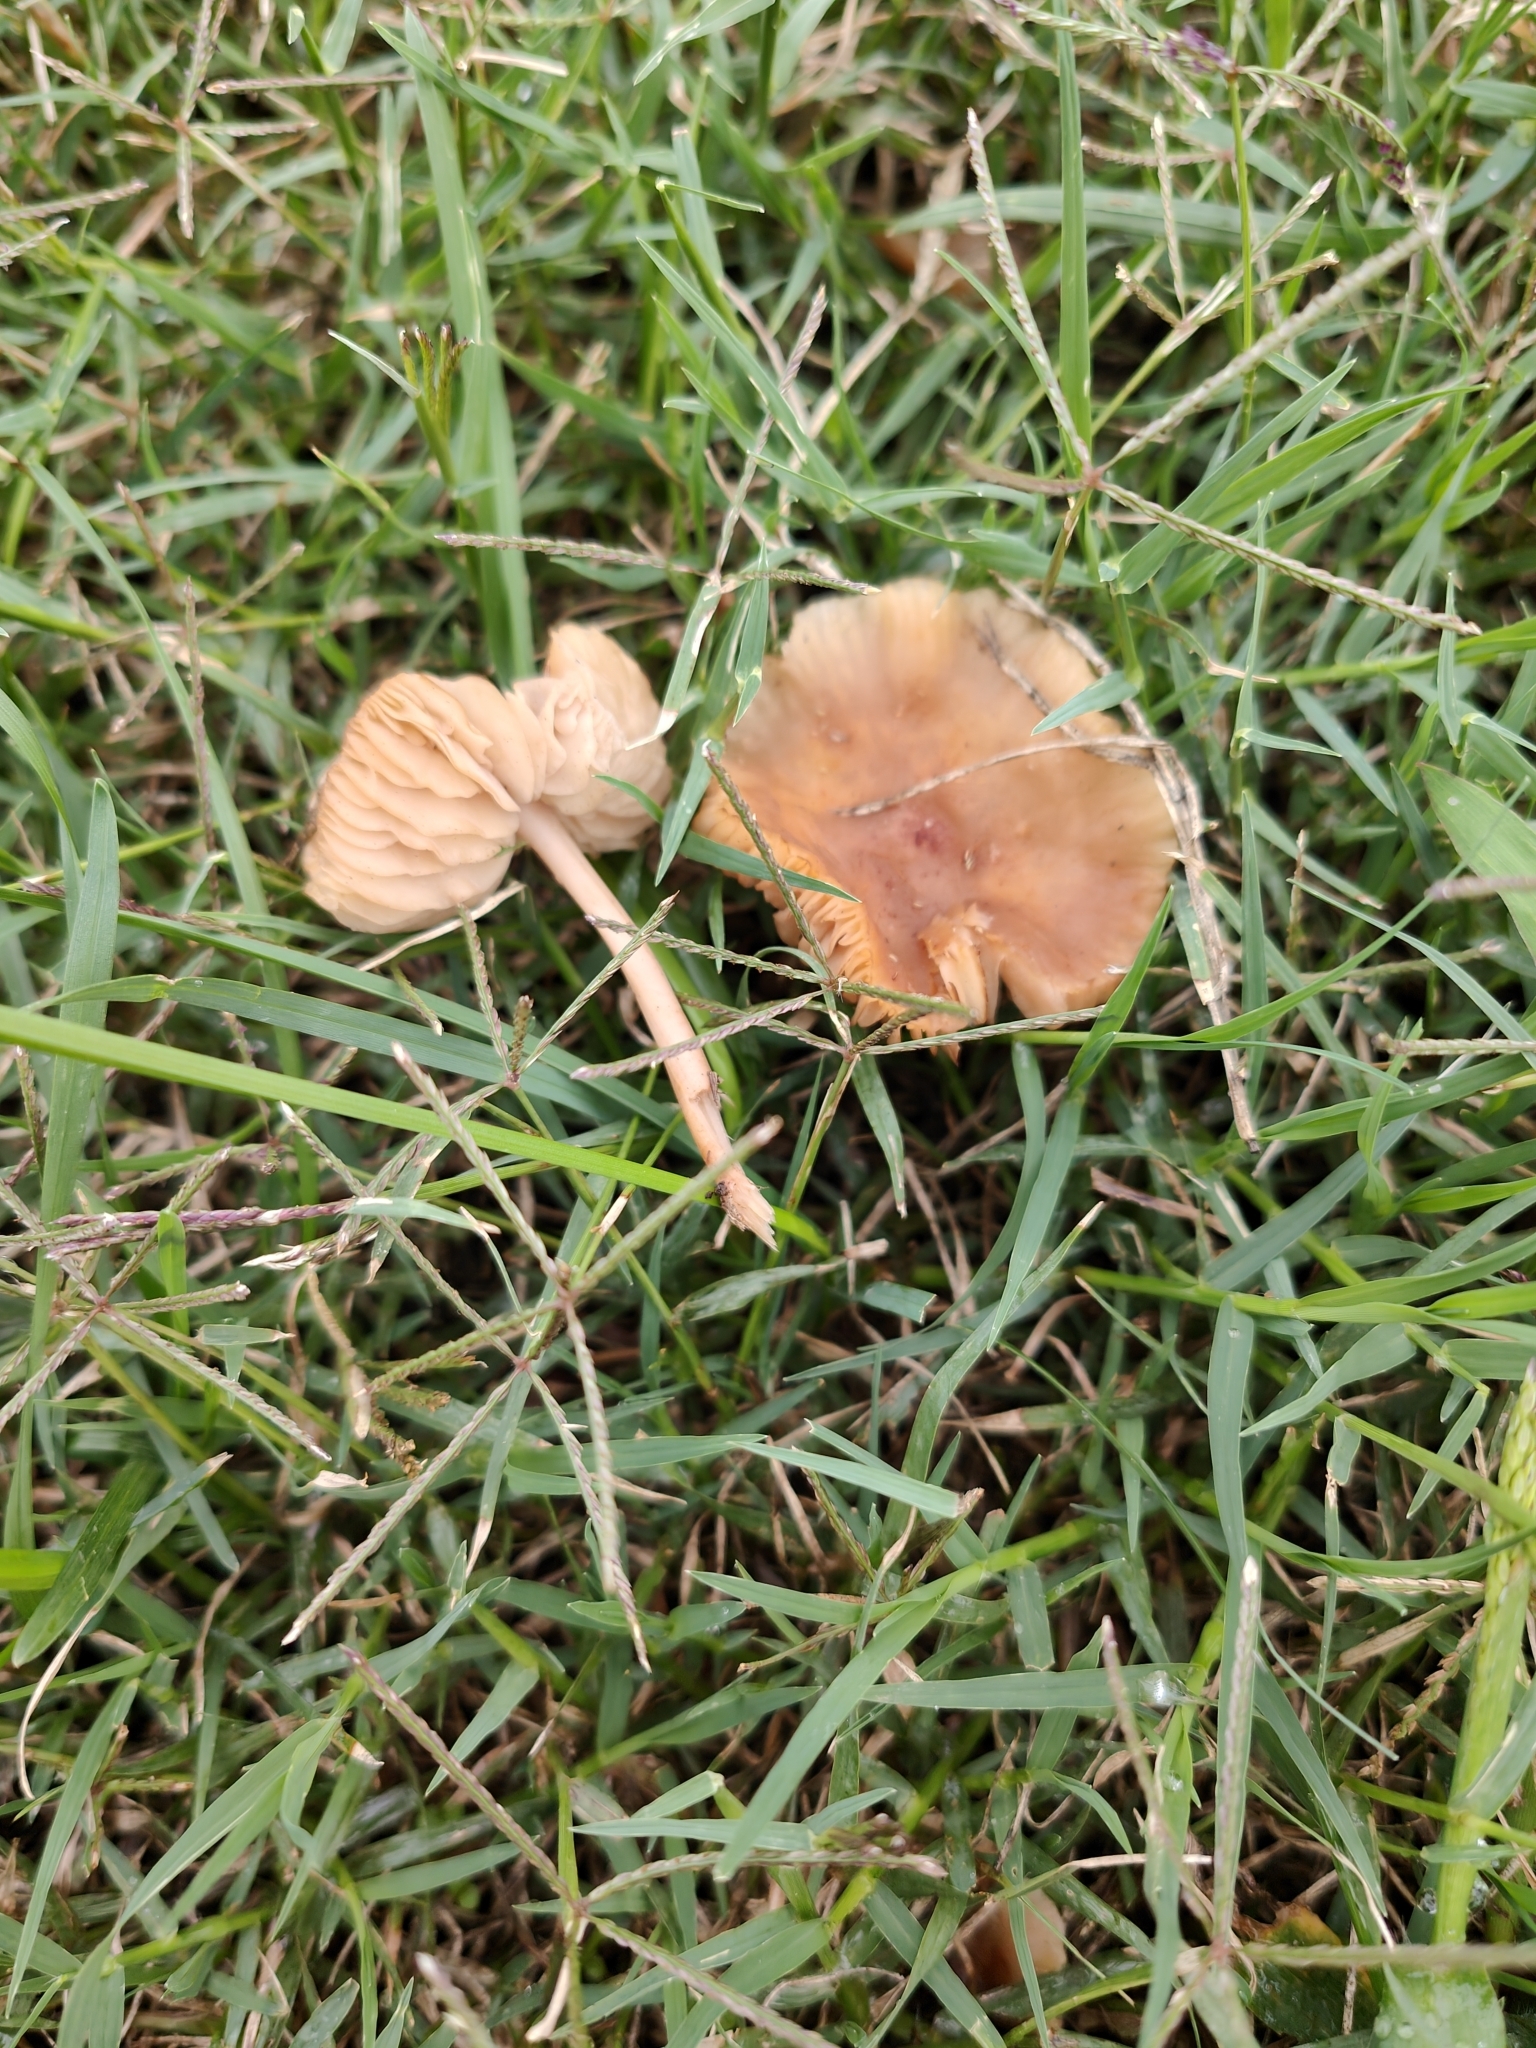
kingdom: Fungi
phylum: Basidiomycota
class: Agaricomycetes
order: Agaricales
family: Marasmiaceae
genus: Marasmius
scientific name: Marasmius oreades
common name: Fairy ring champignon
